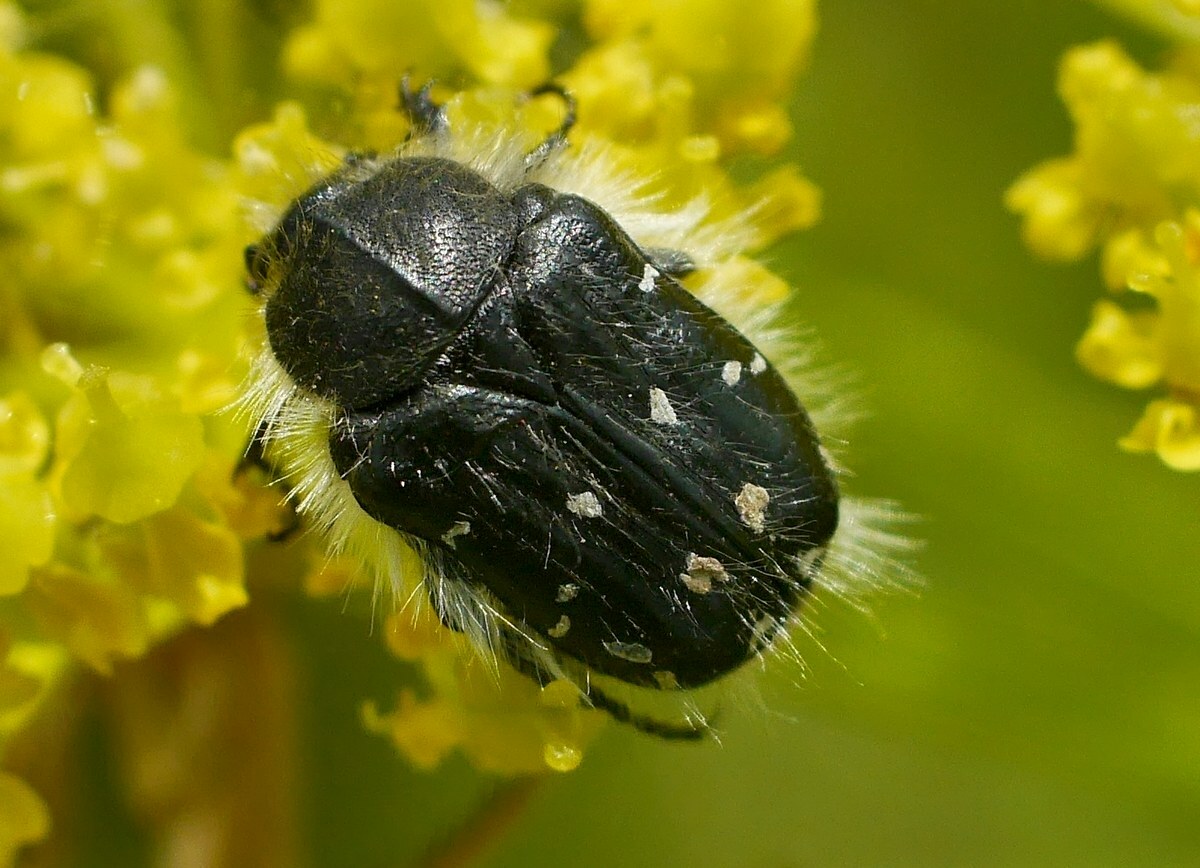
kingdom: Animalia
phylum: Arthropoda
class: Insecta
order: Coleoptera
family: Scarabaeidae
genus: Tropinota
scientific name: Tropinota hirta
